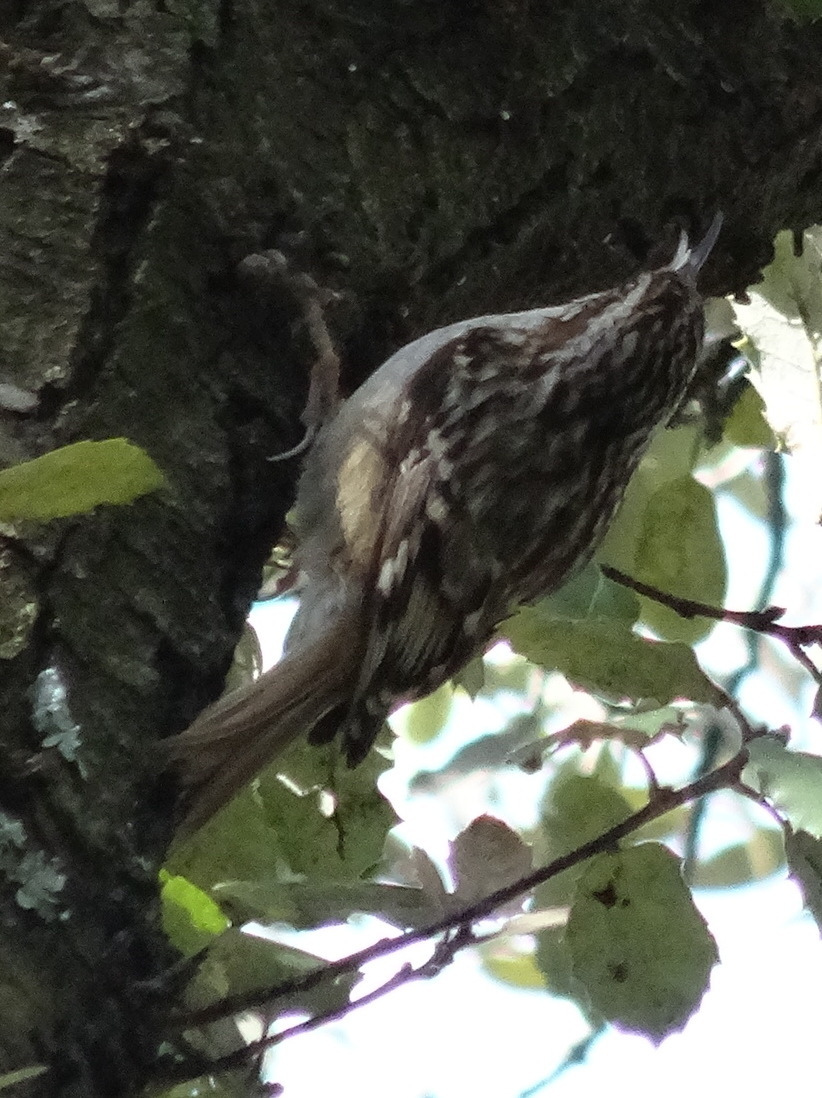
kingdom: Animalia
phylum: Chordata
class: Aves
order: Passeriformes
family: Certhiidae
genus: Certhia
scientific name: Certhia brachydactyla
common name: Short-toed treecreeper
